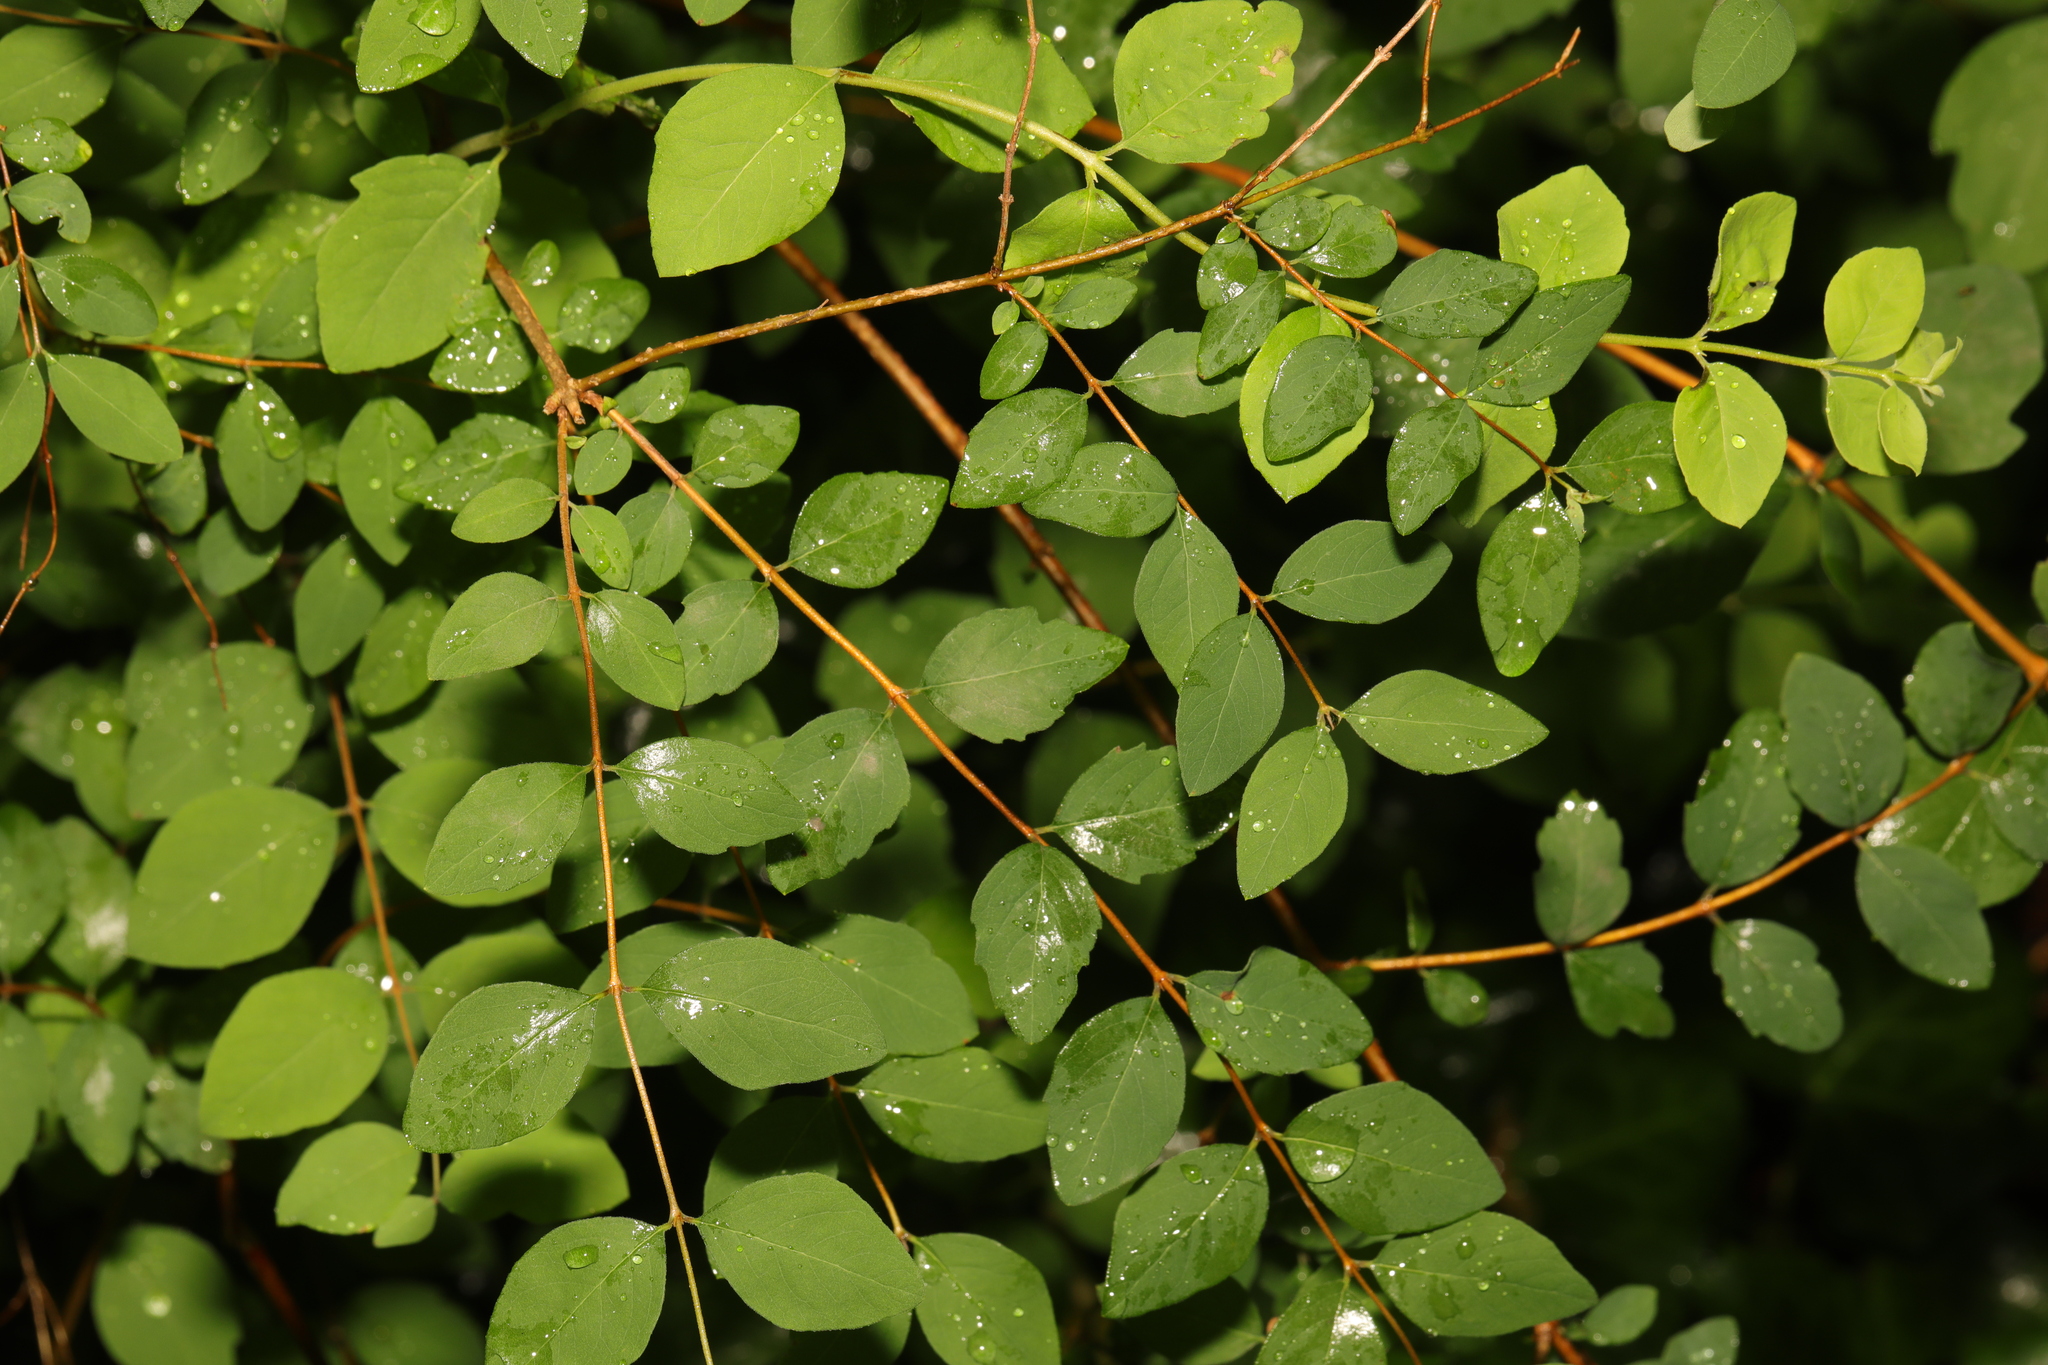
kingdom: Plantae
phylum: Tracheophyta
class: Magnoliopsida
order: Dipsacales
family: Caprifoliaceae
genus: Symphoricarpos
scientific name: Symphoricarpos chenaultii
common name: Hybrid coralberry
